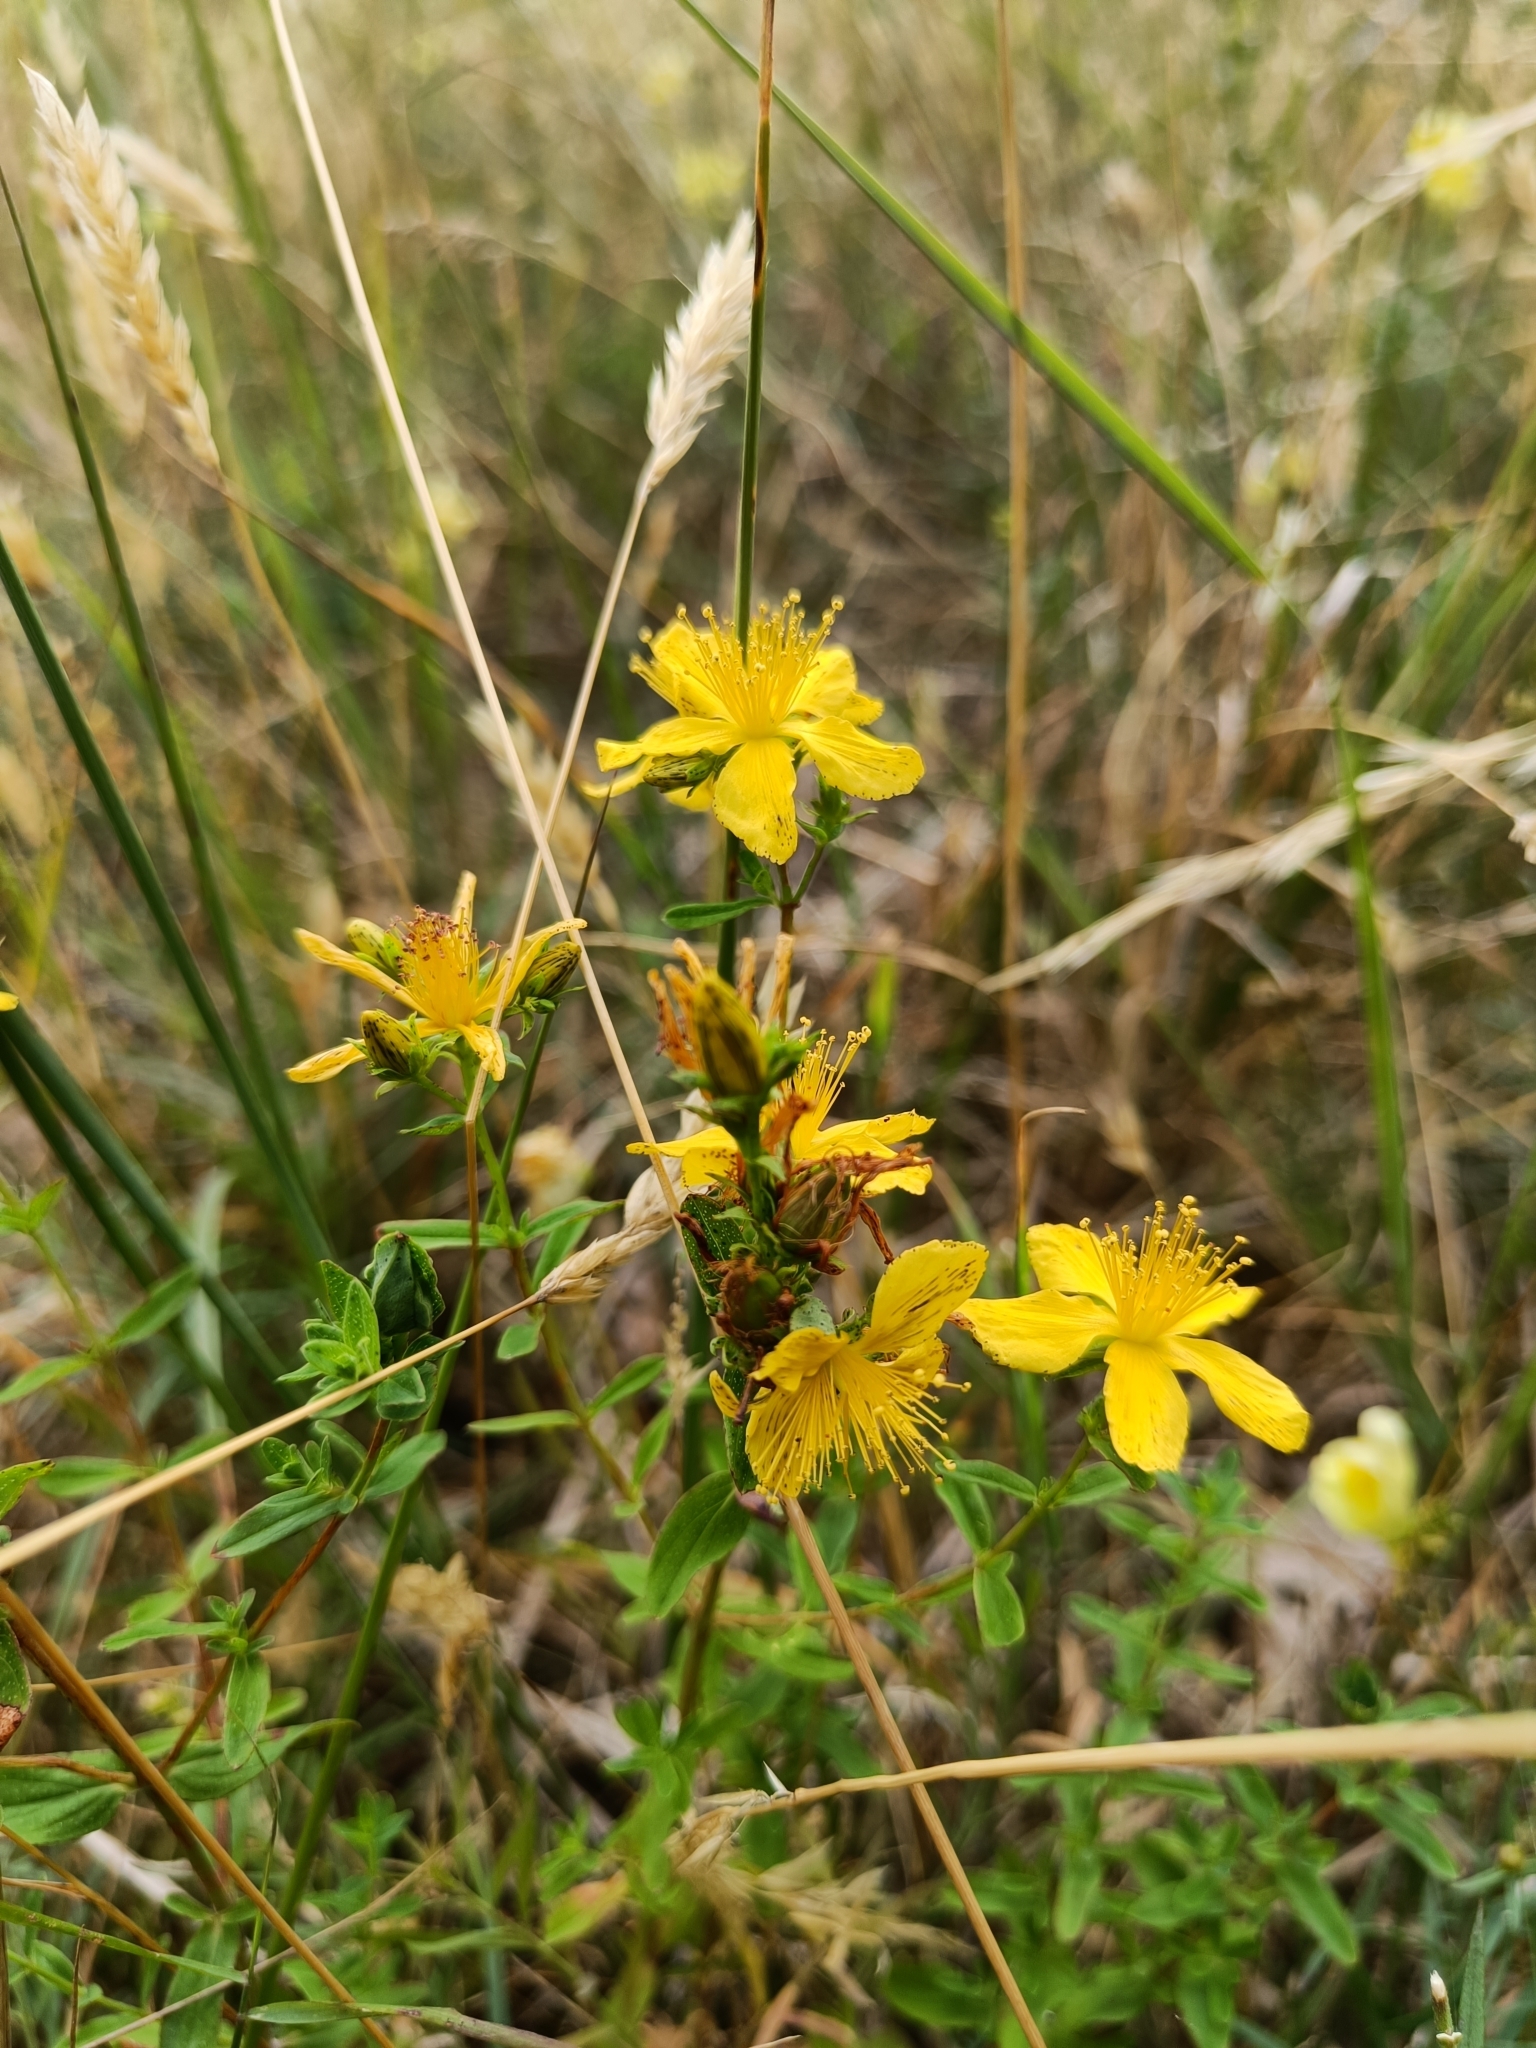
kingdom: Plantae
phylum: Tracheophyta
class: Magnoliopsida
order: Malpighiales
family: Hypericaceae
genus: Hypericum
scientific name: Hypericum perforatum
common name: Common st. johnswort
